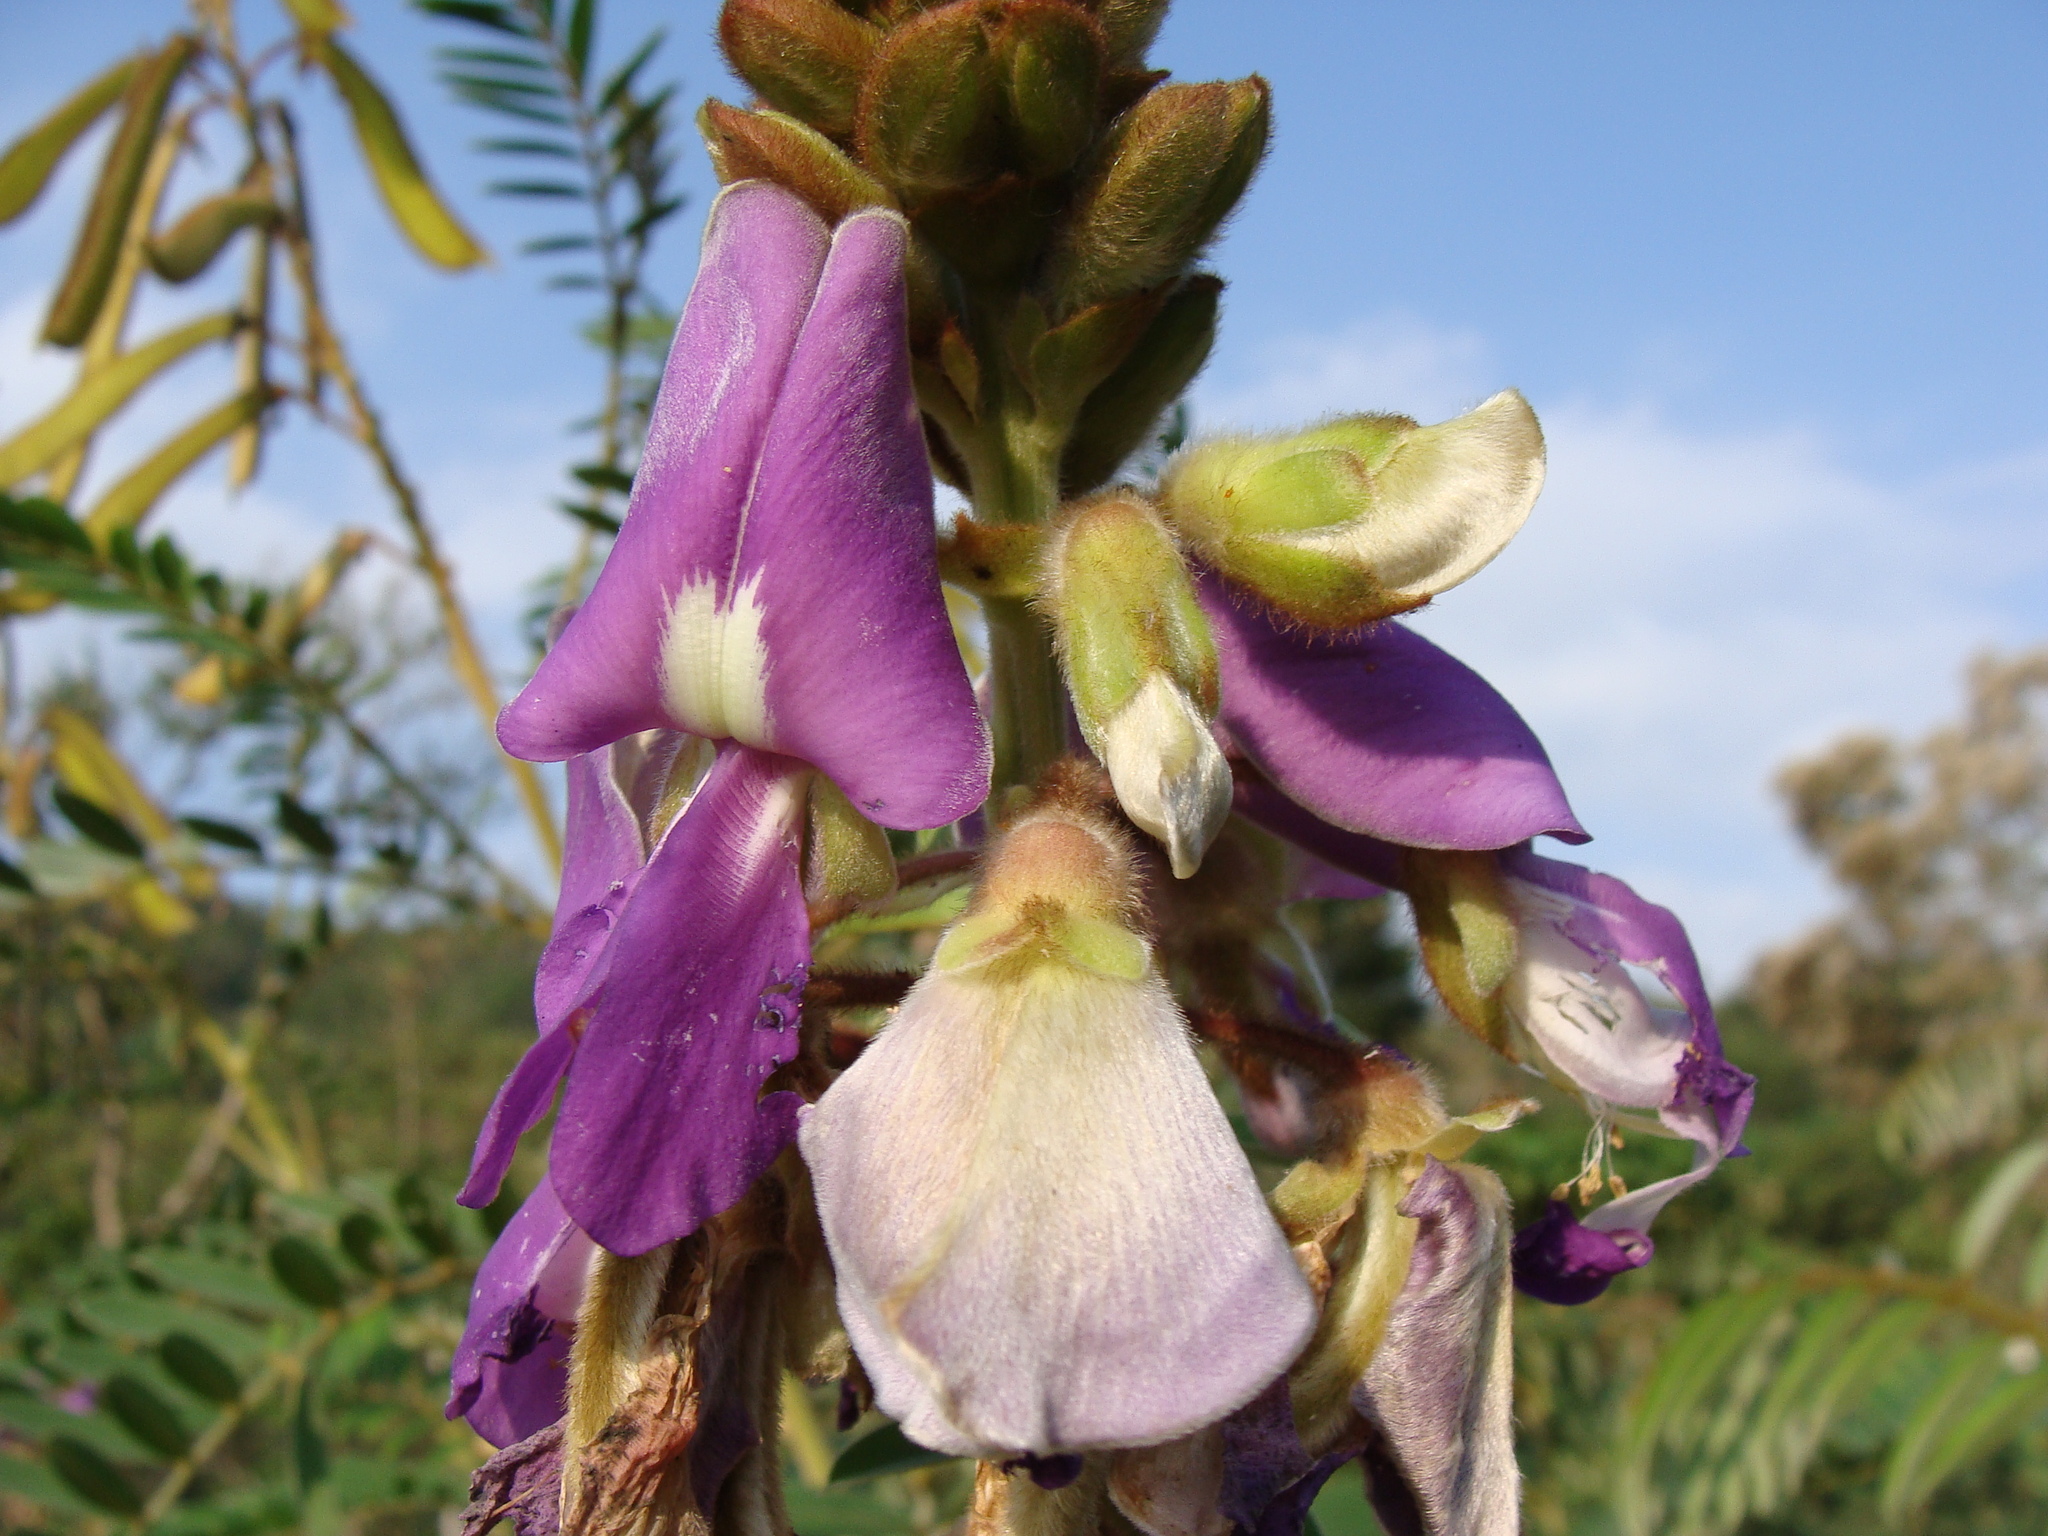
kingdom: Plantae
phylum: Tracheophyta
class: Magnoliopsida
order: Fabales
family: Fabaceae
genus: Tephrosia
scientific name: Tephrosia vogelii
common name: Vogel tephrosia
